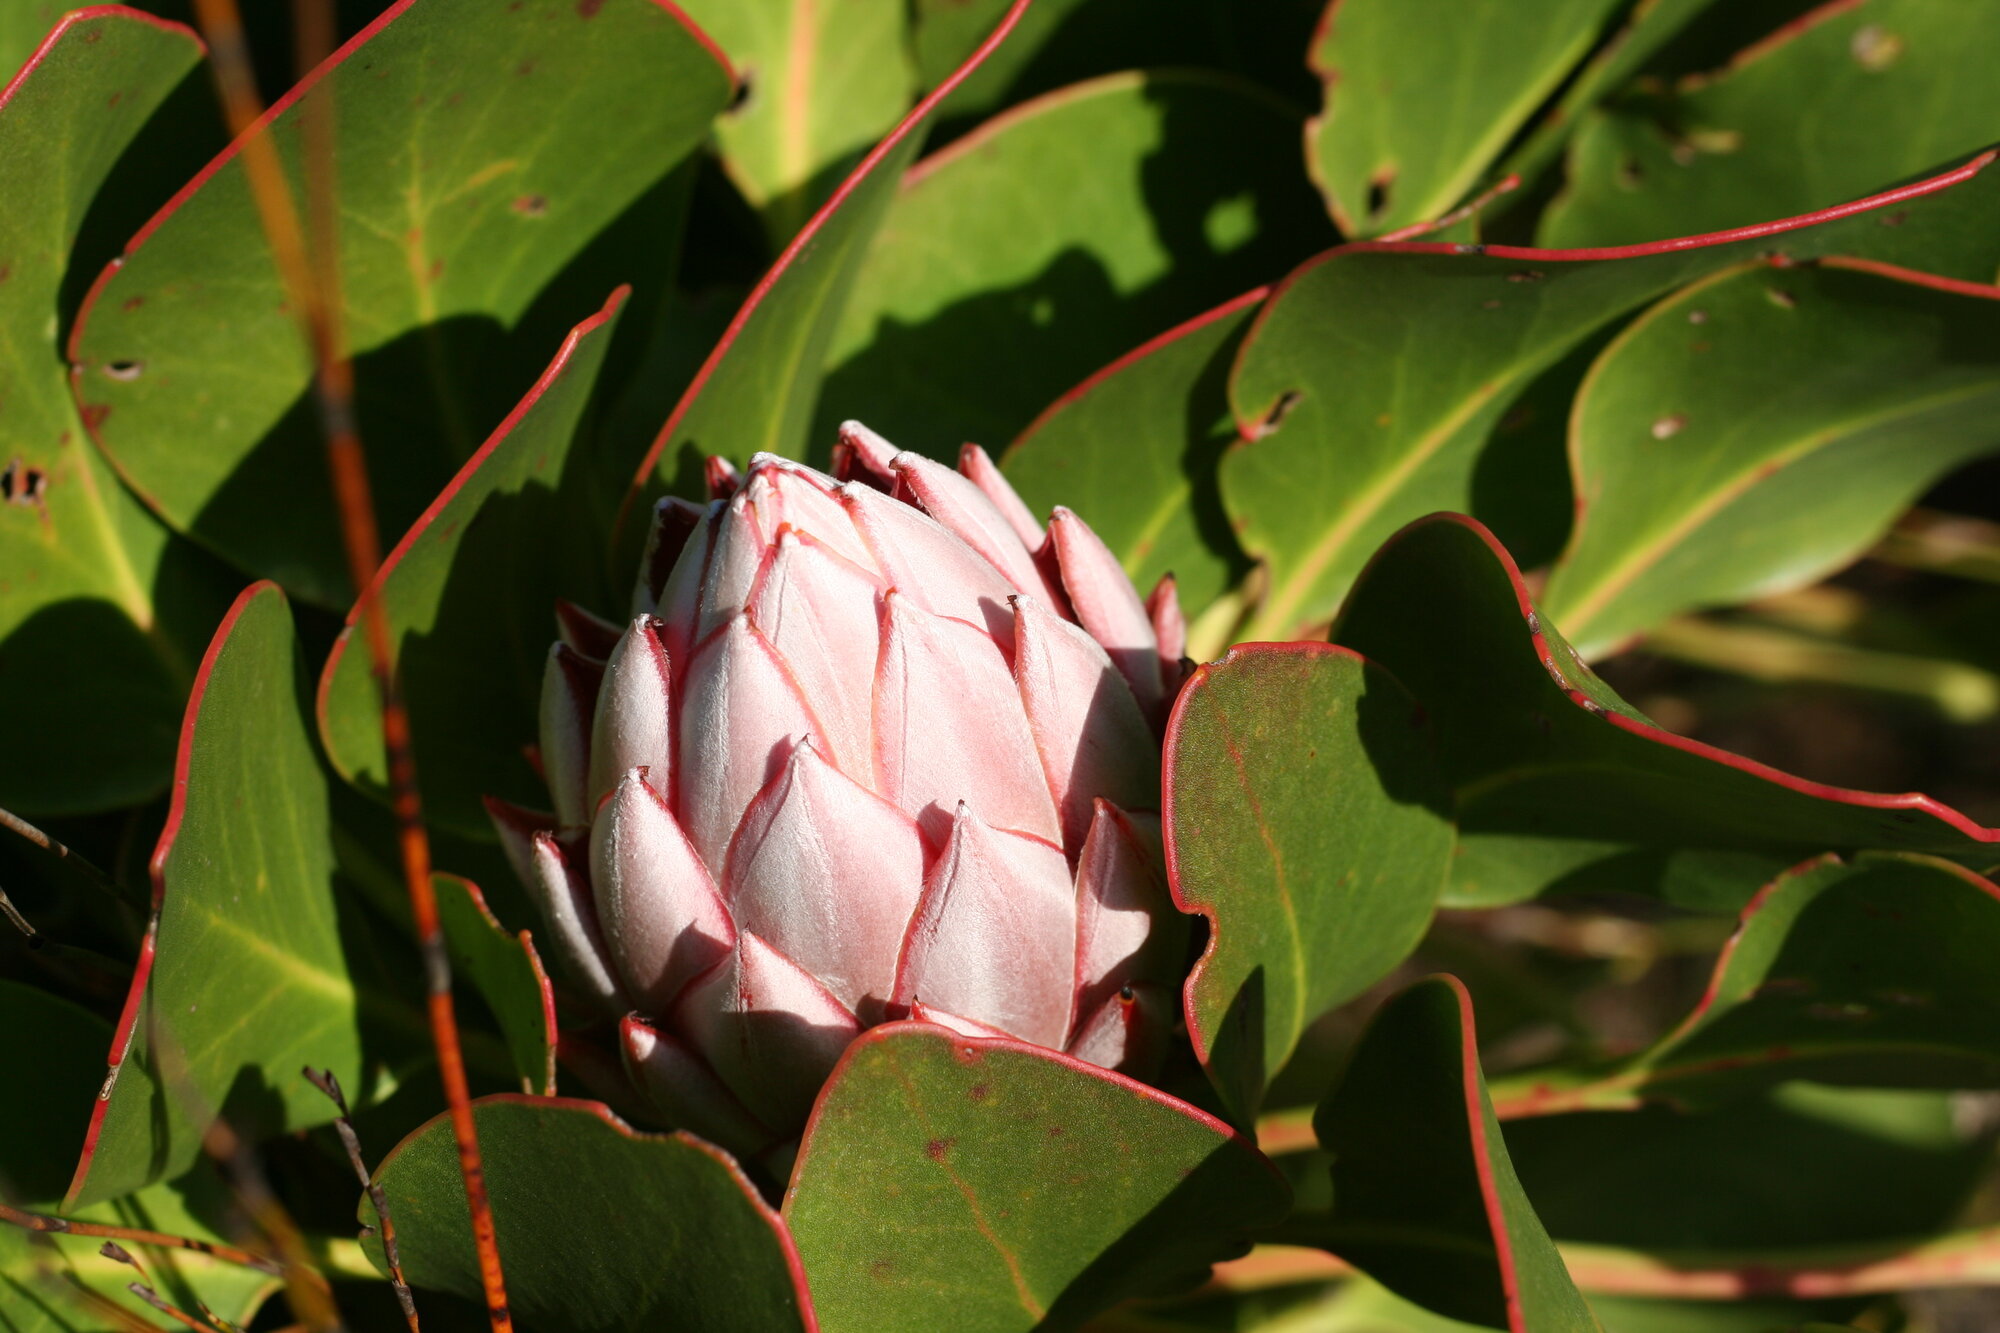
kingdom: Plantae
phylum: Tracheophyta
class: Magnoliopsida
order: Proteales
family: Proteaceae
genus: Protea
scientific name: Protea cynaroides
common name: King protea
